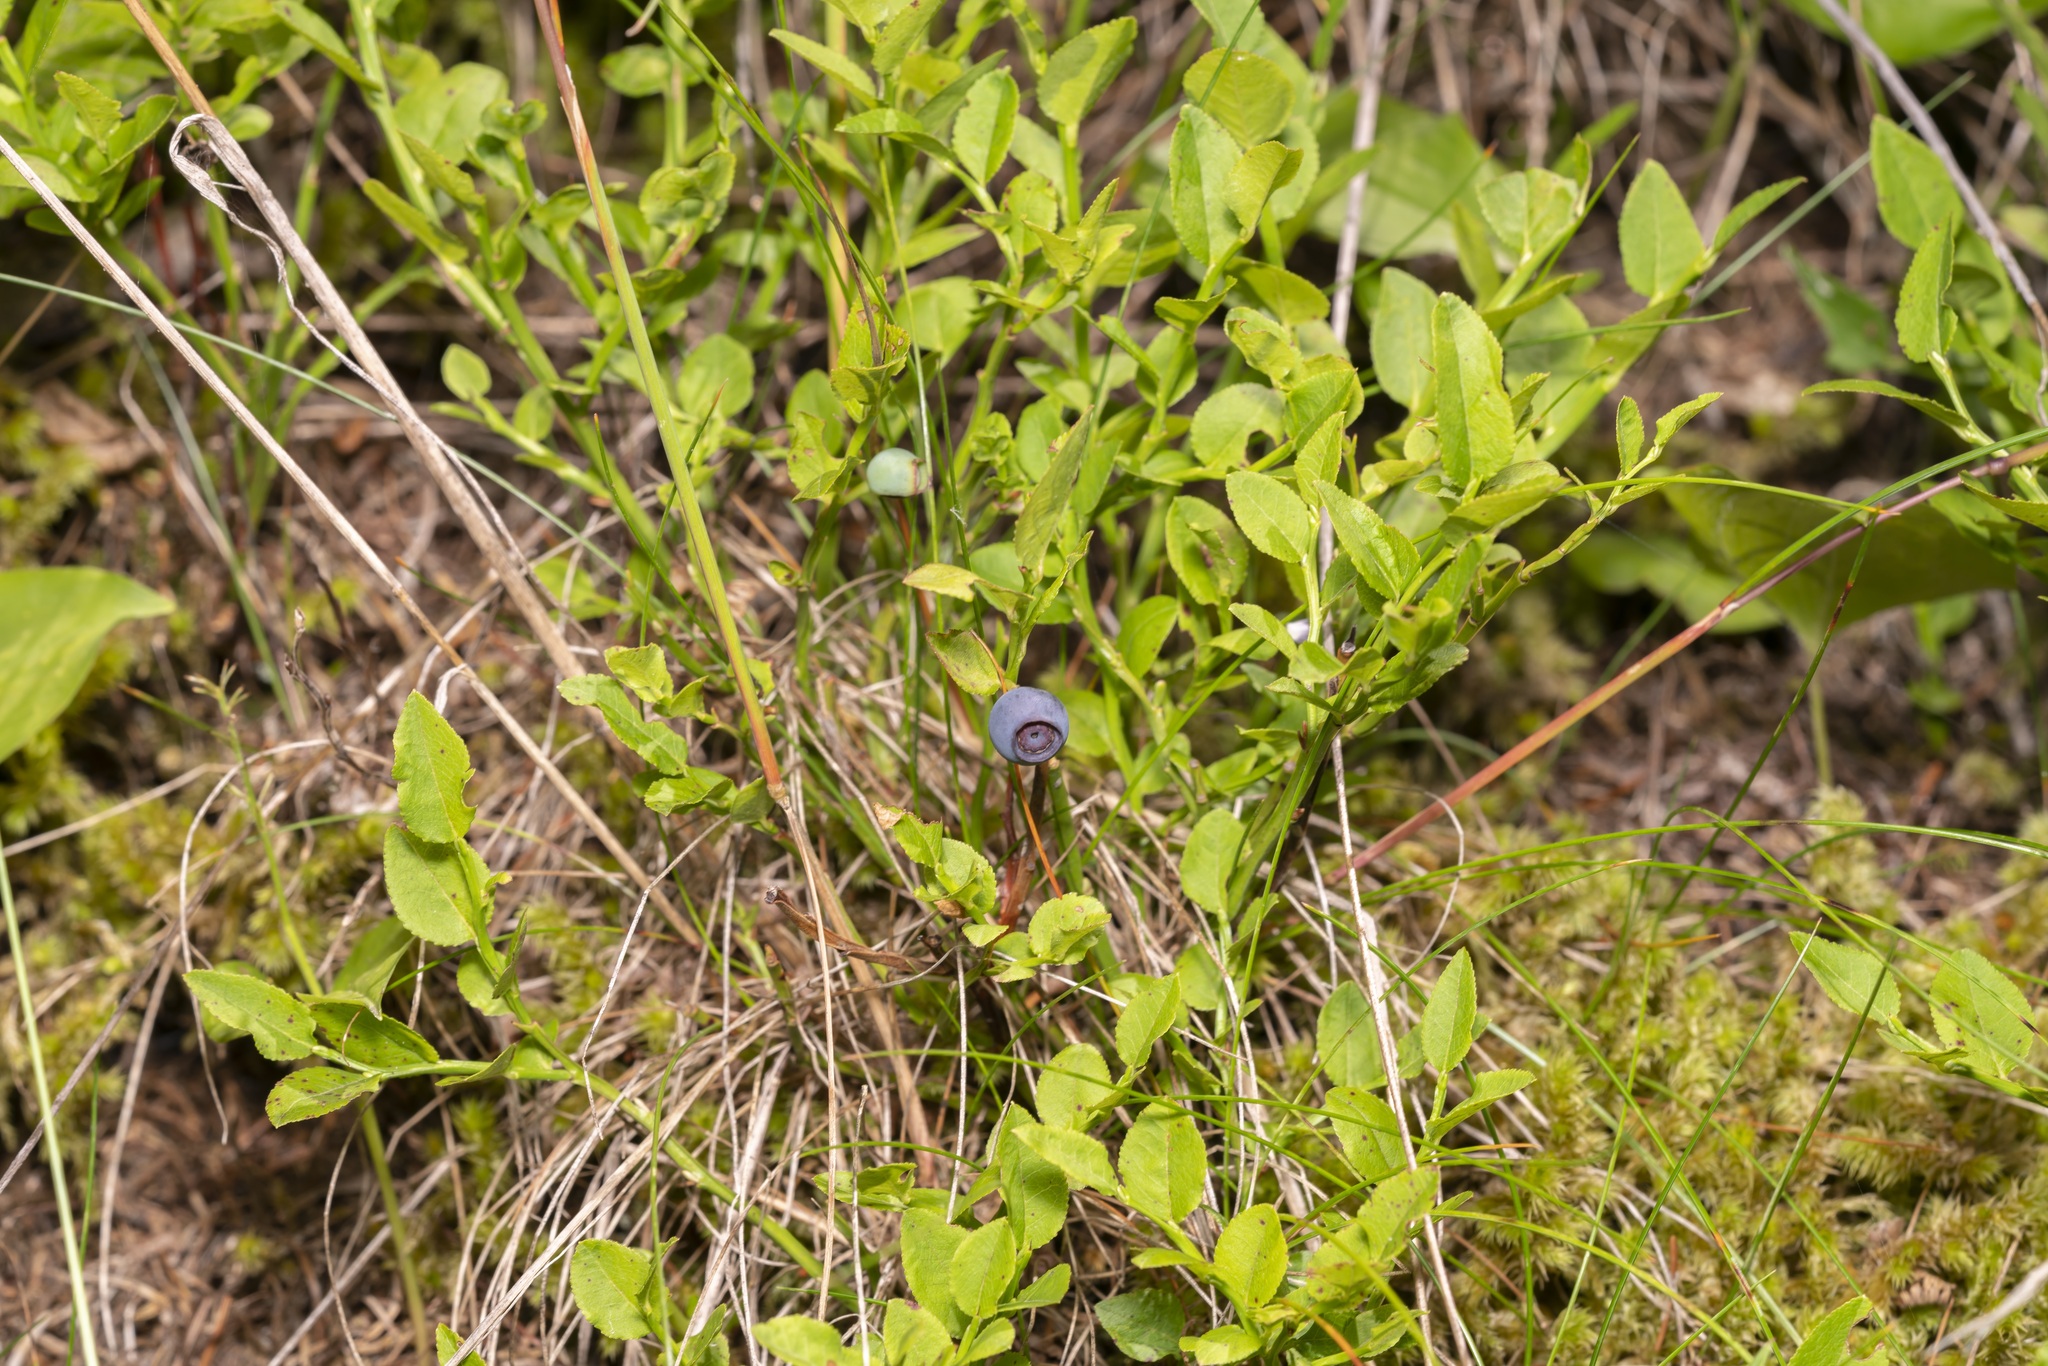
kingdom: Plantae
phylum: Tracheophyta
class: Magnoliopsida
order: Ericales
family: Ericaceae
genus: Vaccinium
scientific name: Vaccinium myrtillus
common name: Bilberry
